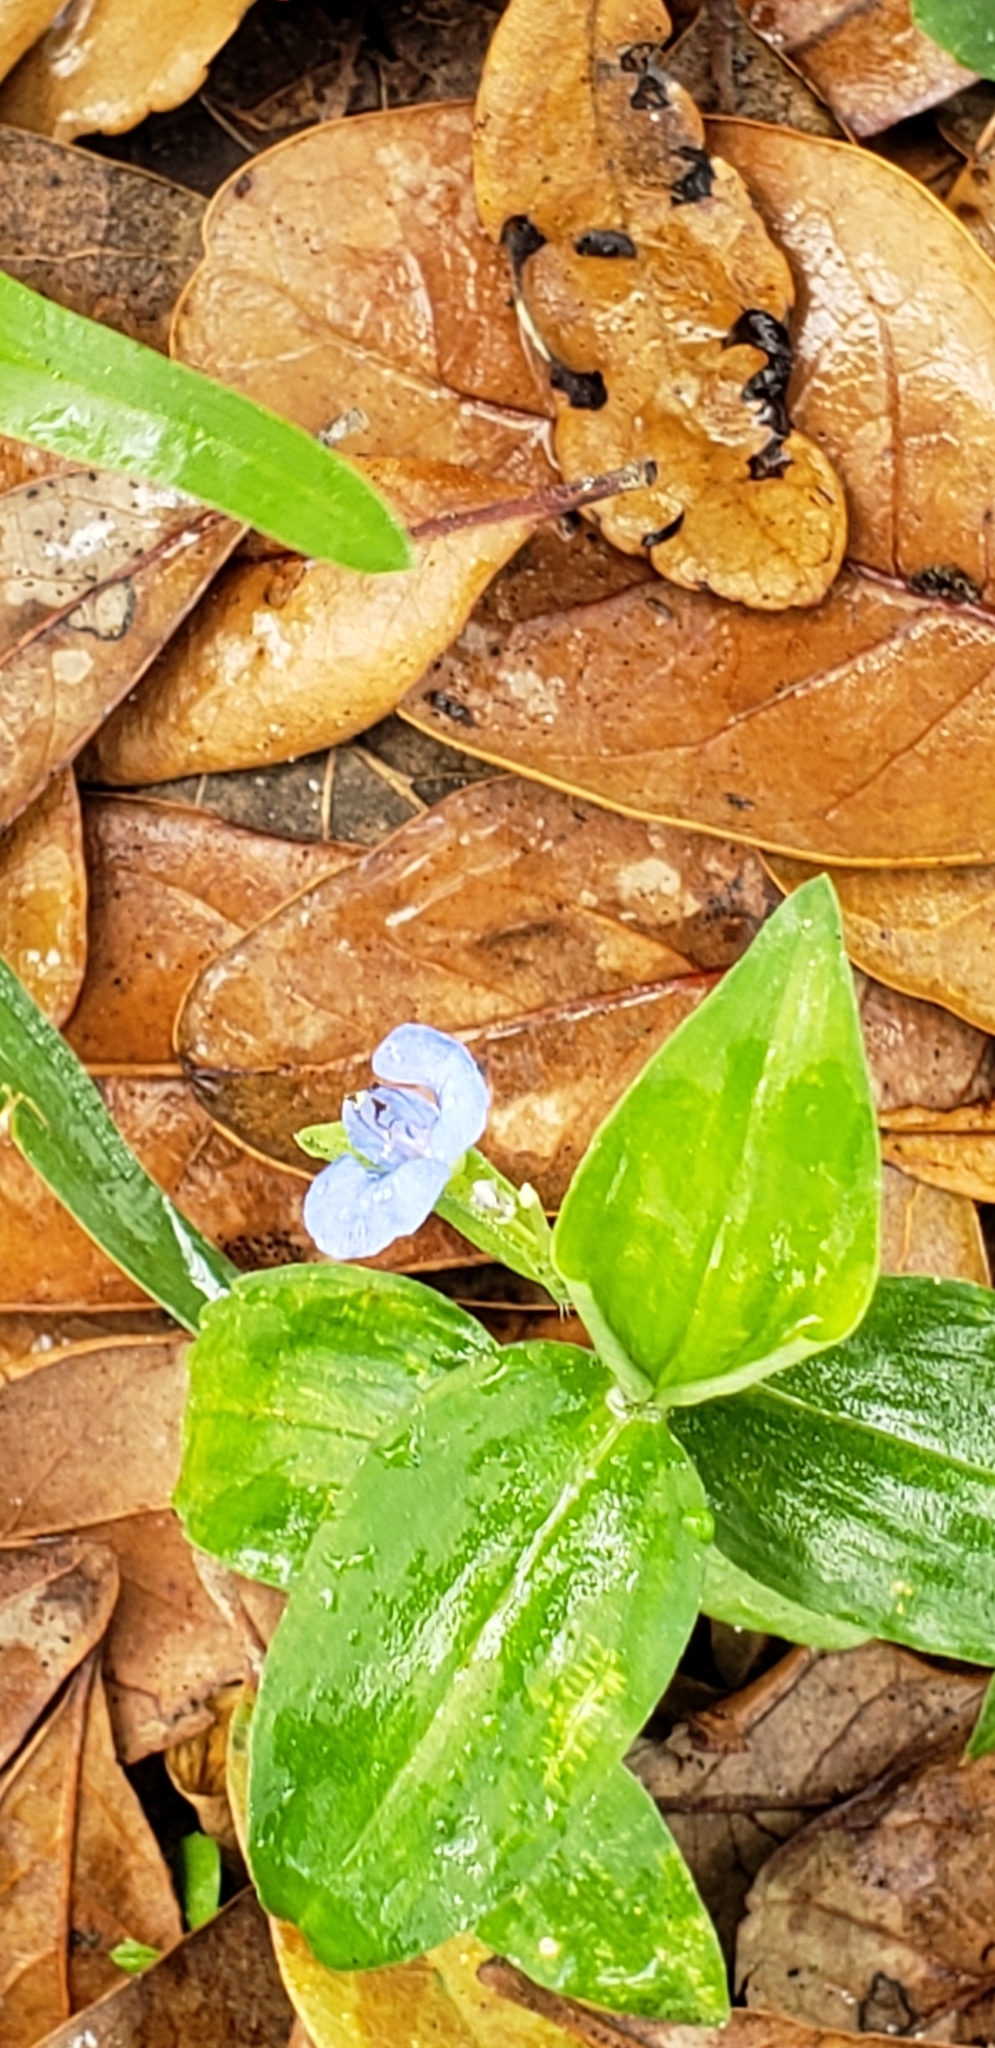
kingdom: Plantae
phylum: Tracheophyta
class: Liliopsida
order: Commelinales
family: Commelinaceae
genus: Commelina
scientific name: Commelina diffusa
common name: Climbing dayflower
